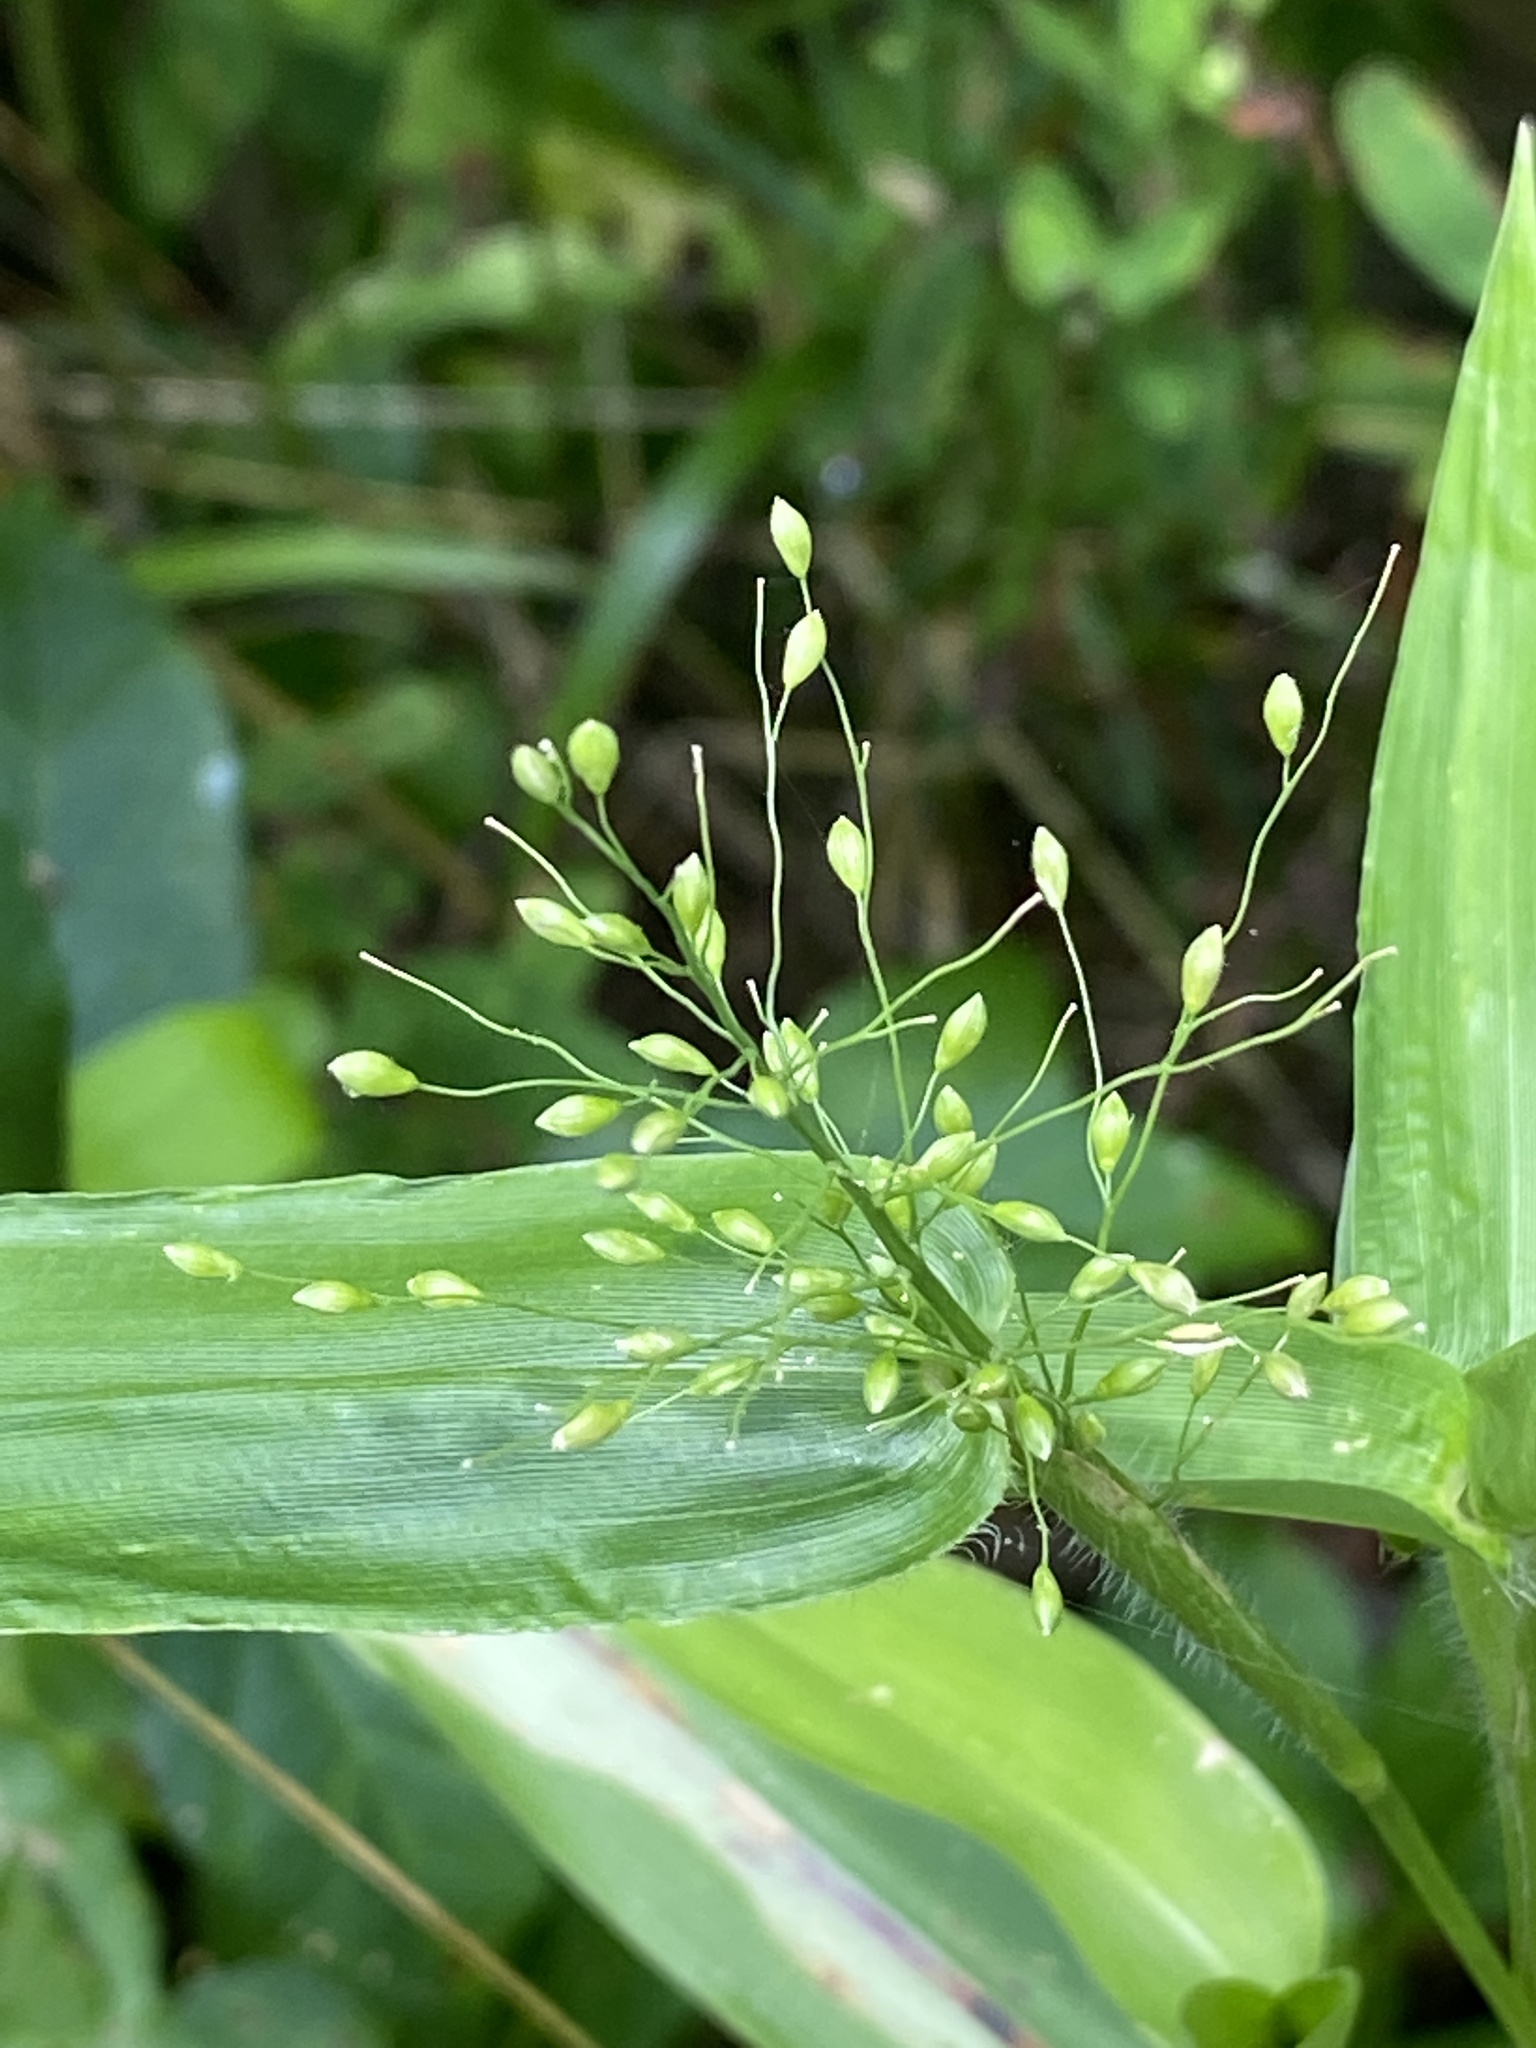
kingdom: Plantae
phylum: Tracheophyta
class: Liliopsida
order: Poales
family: Poaceae
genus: Dichanthelium
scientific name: Dichanthelium clandestinum
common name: Deer-tongue grass
